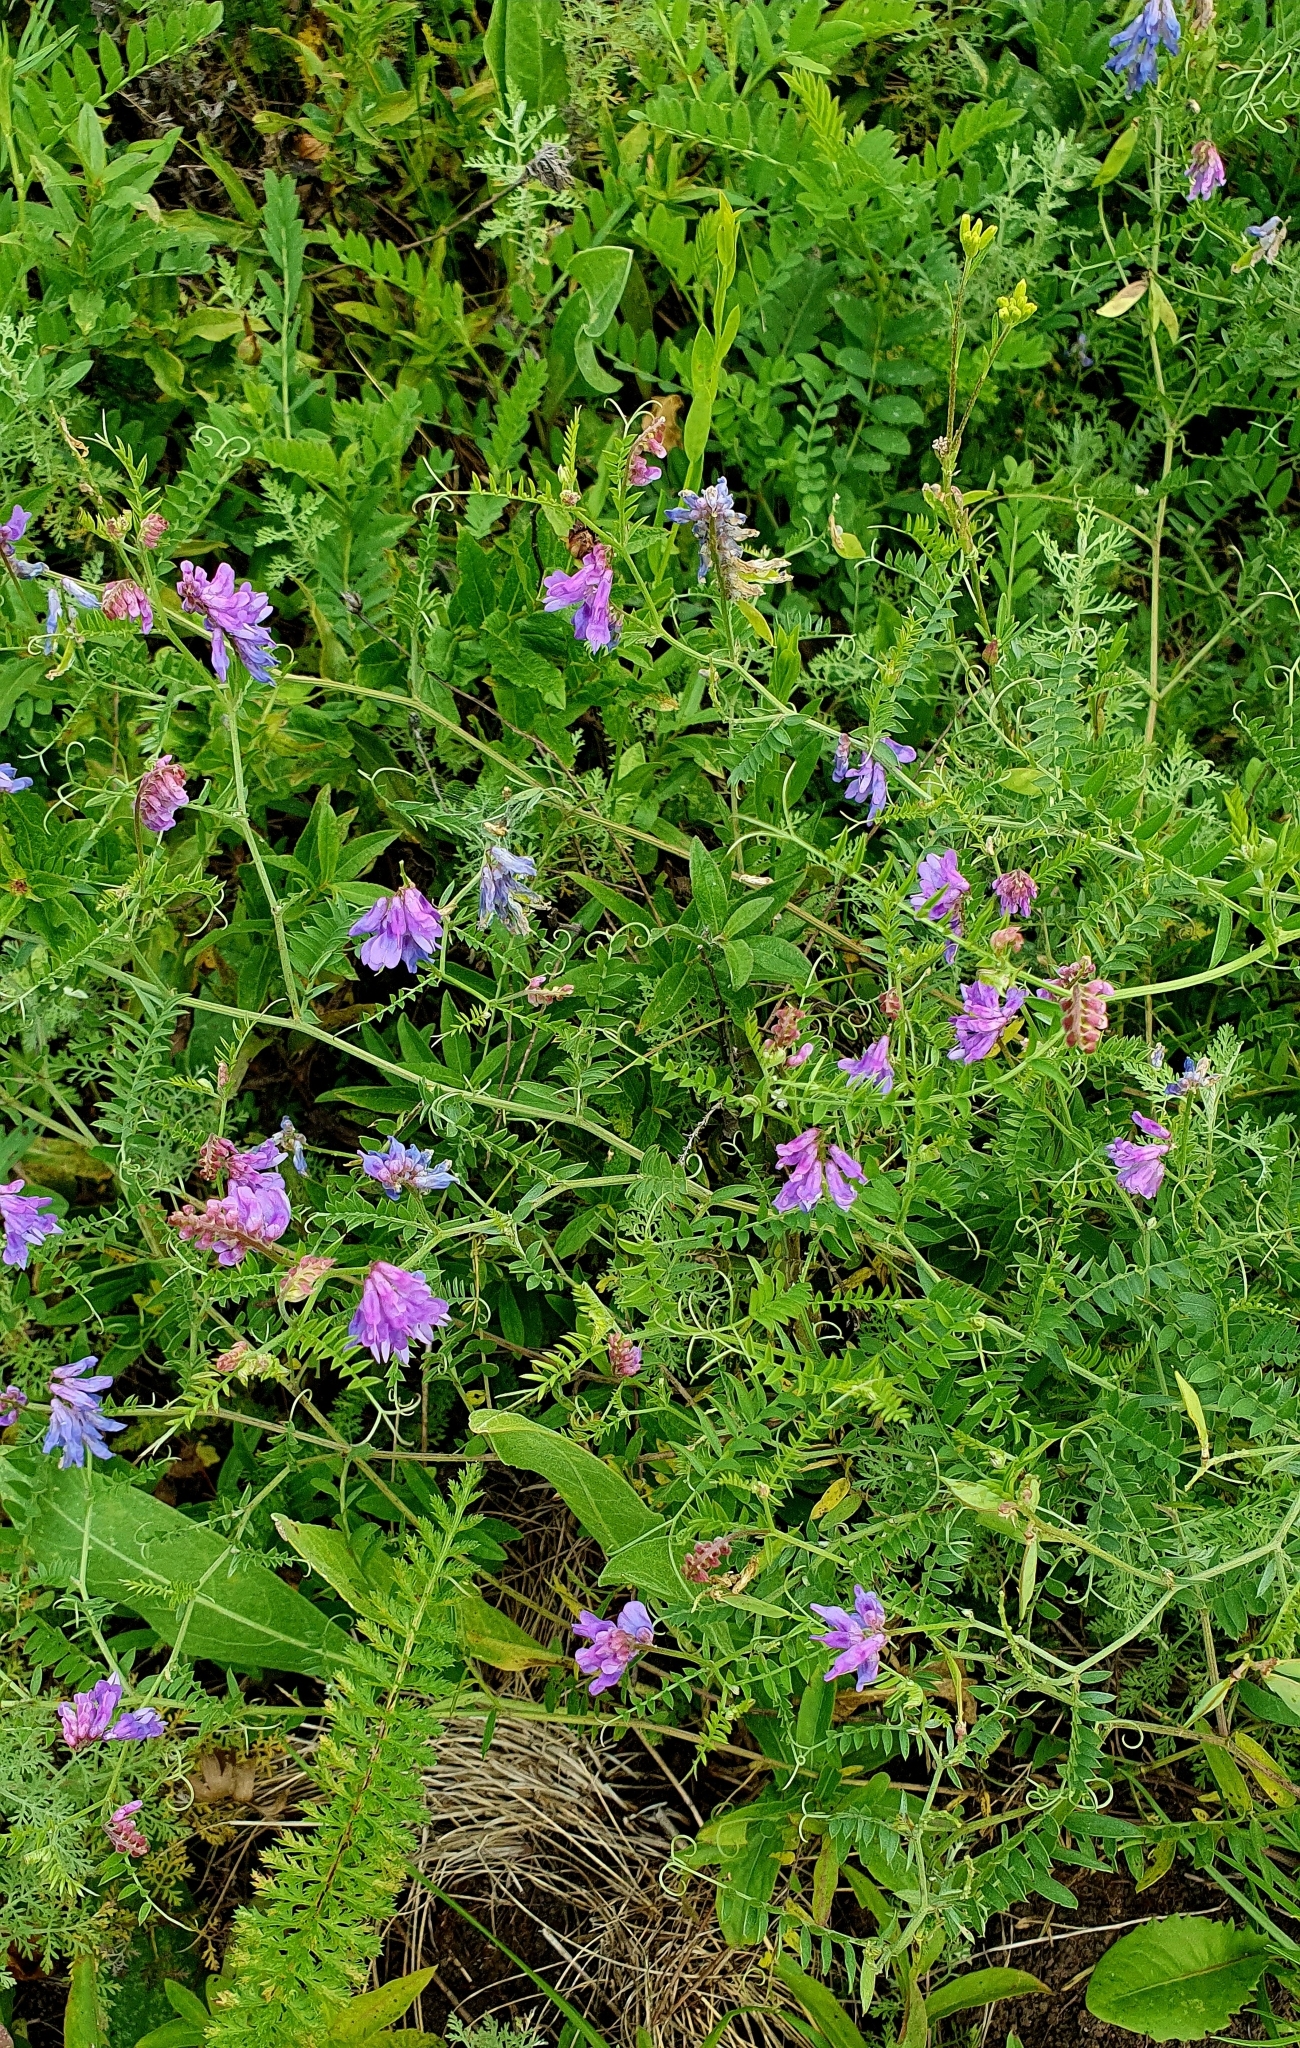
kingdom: Plantae
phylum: Tracheophyta
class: Magnoliopsida
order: Fabales
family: Fabaceae
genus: Vicia
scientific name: Vicia cracca
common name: Bird vetch
